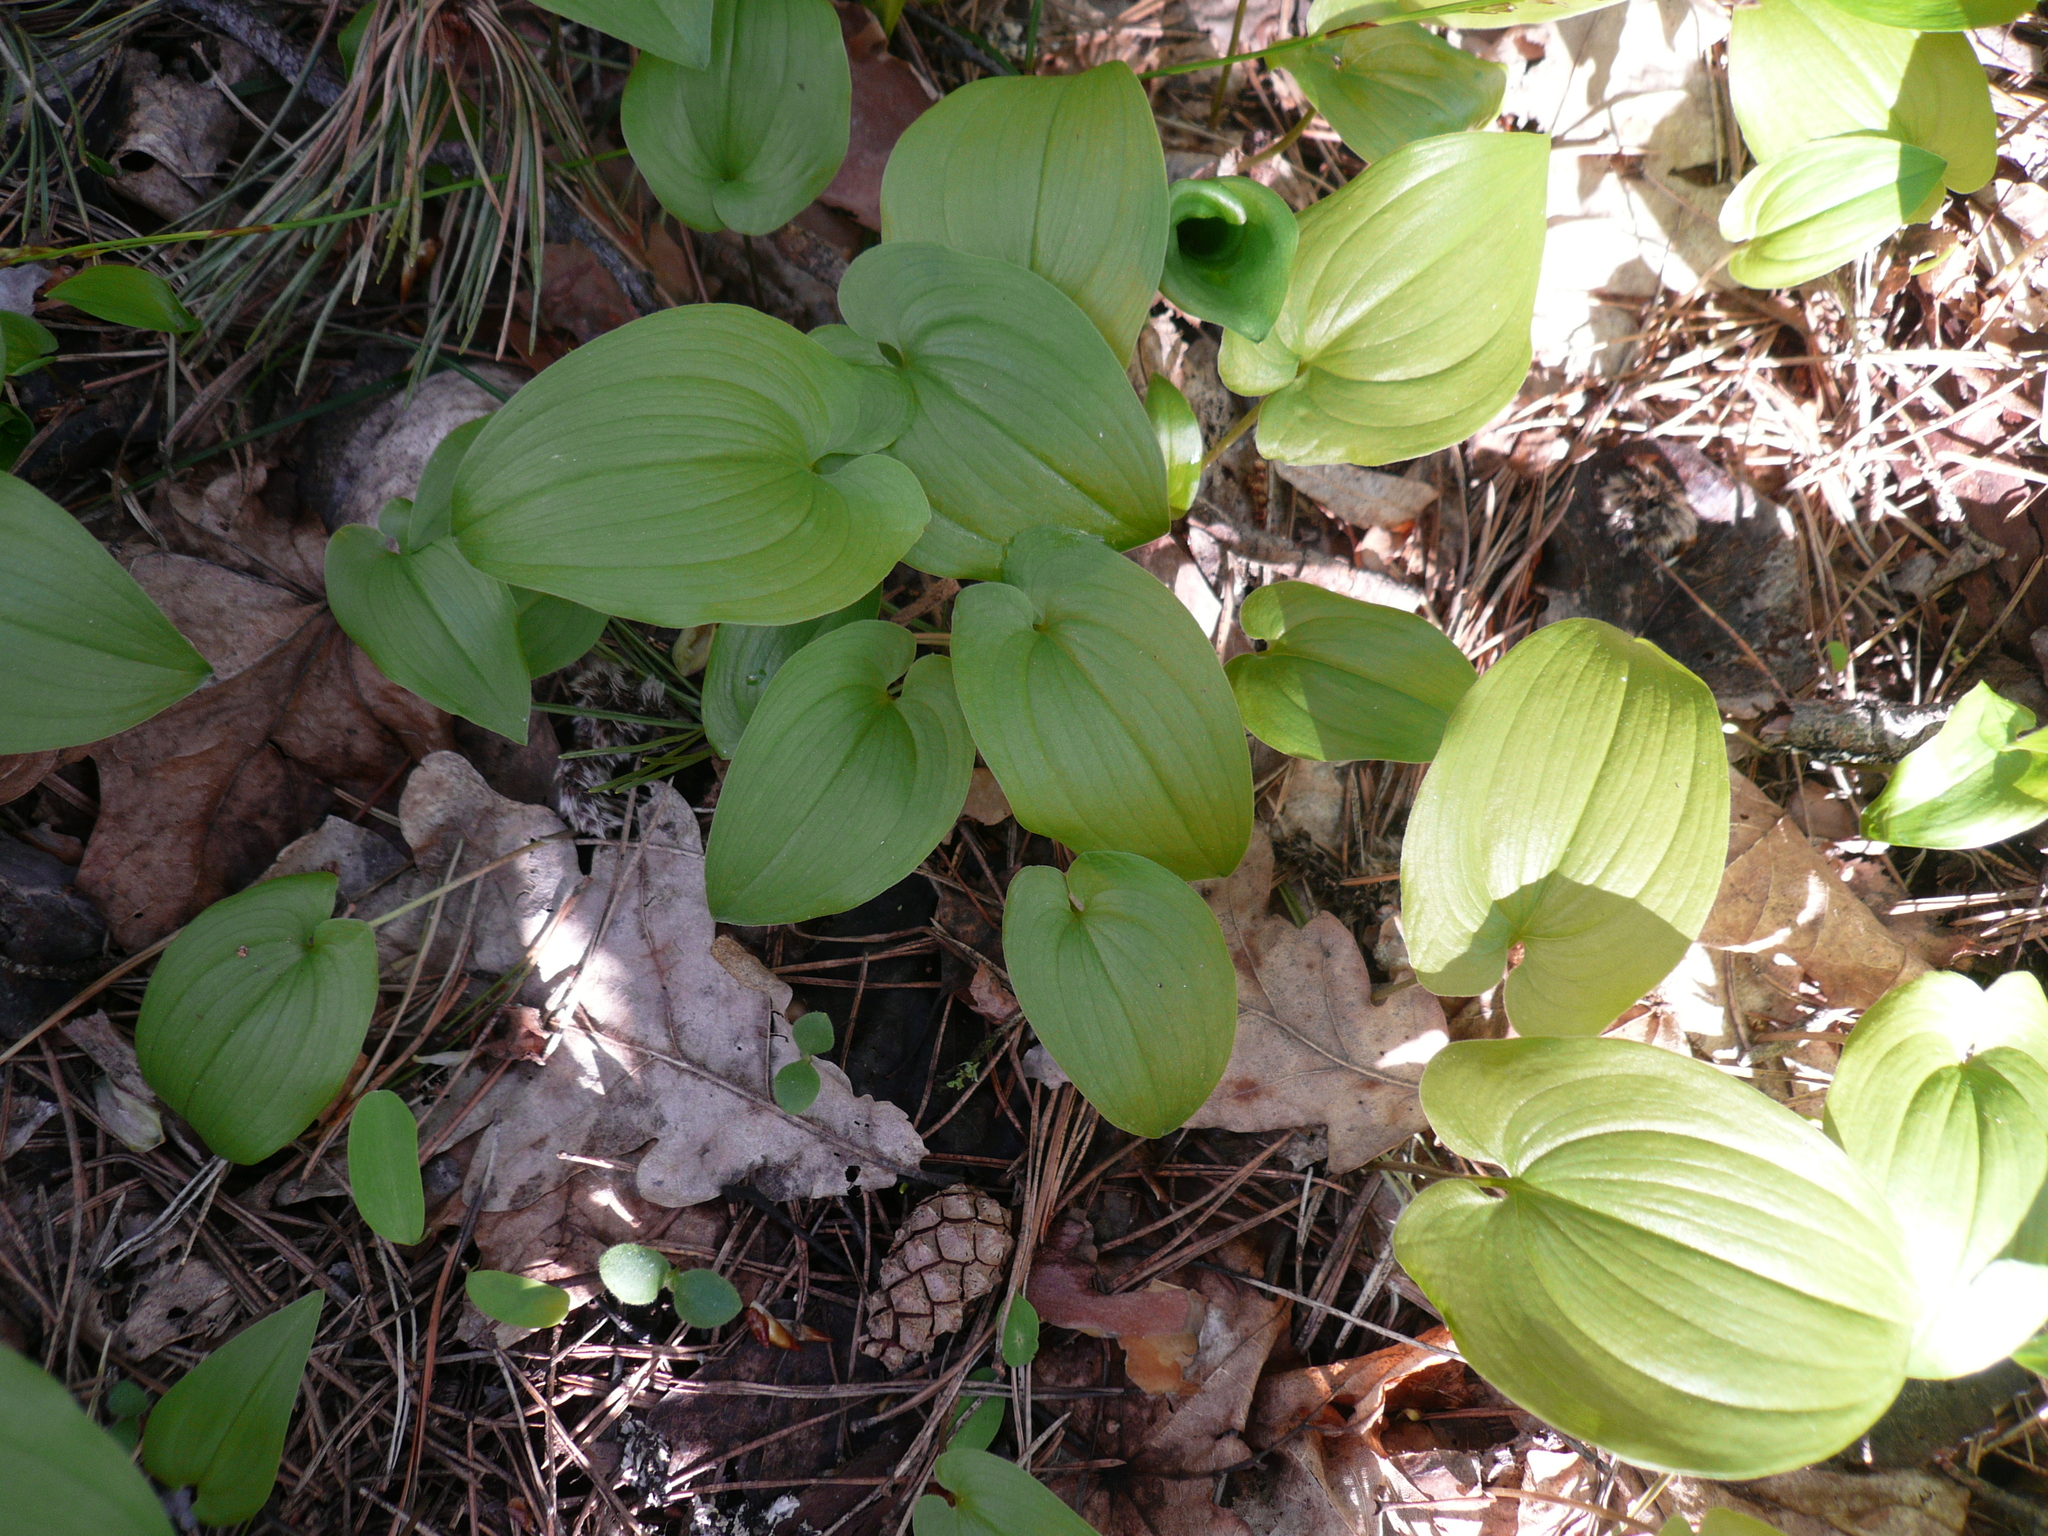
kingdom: Plantae
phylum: Tracheophyta
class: Liliopsida
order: Asparagales
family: Asparagaceae
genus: Maianthemum
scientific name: Maianthemum bifolium
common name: May lily
